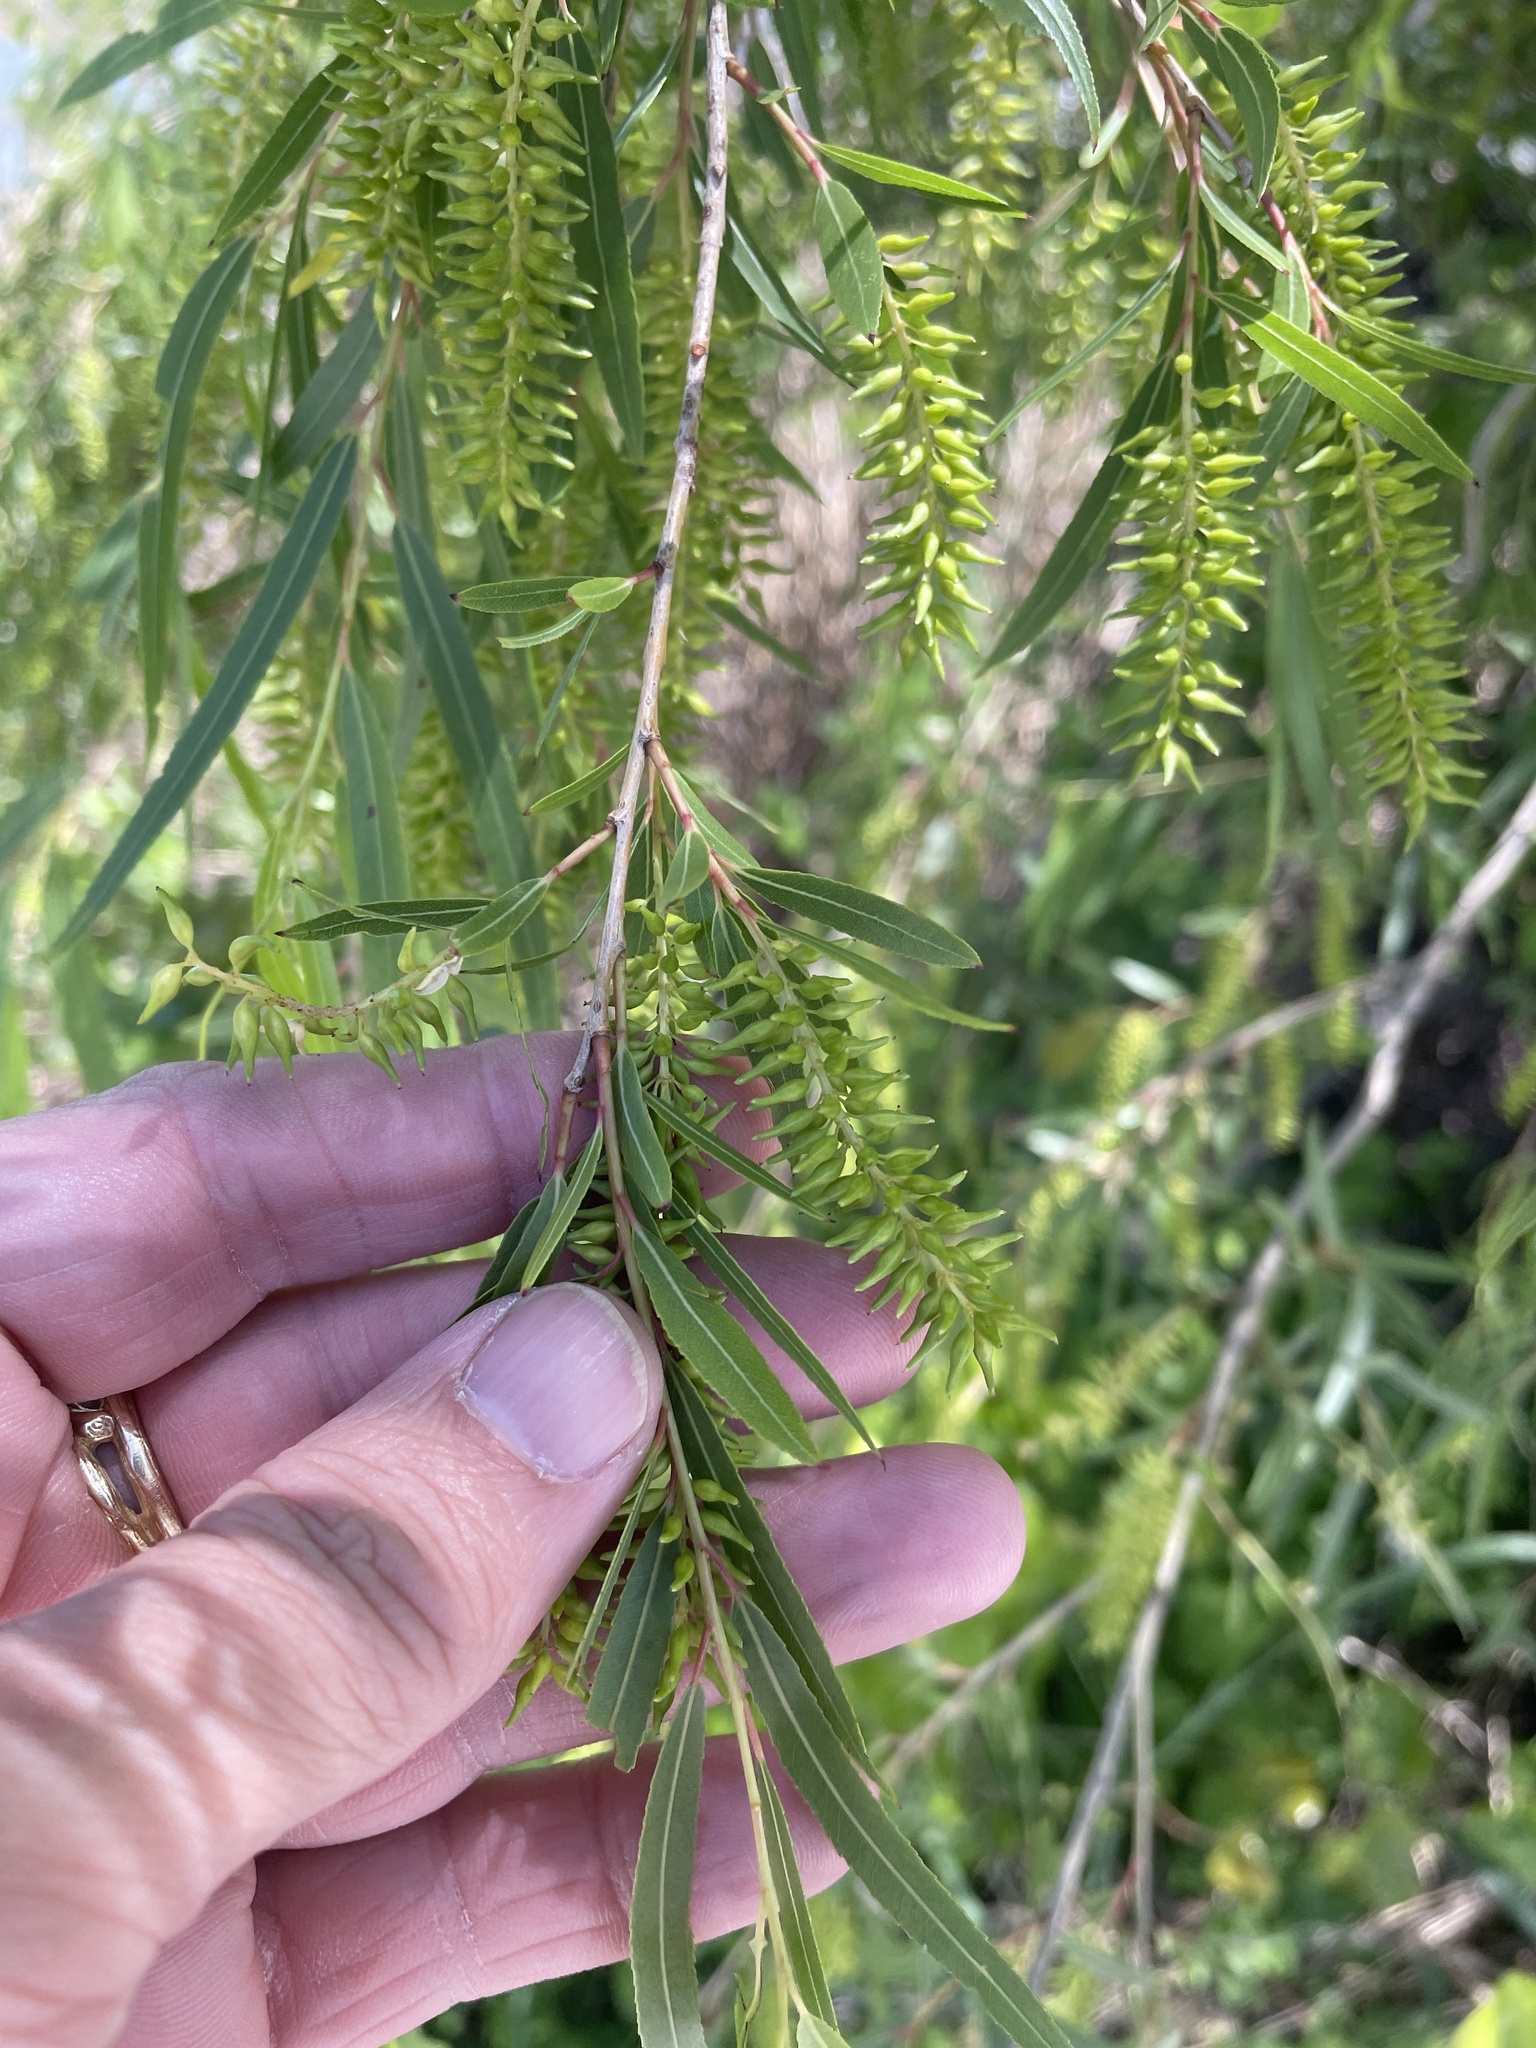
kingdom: Plantae
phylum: Tracheophyta
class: Magnoliopsida
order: Malpighiales
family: Salicaceae
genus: Salix
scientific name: Salix nigra
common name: Black willow
